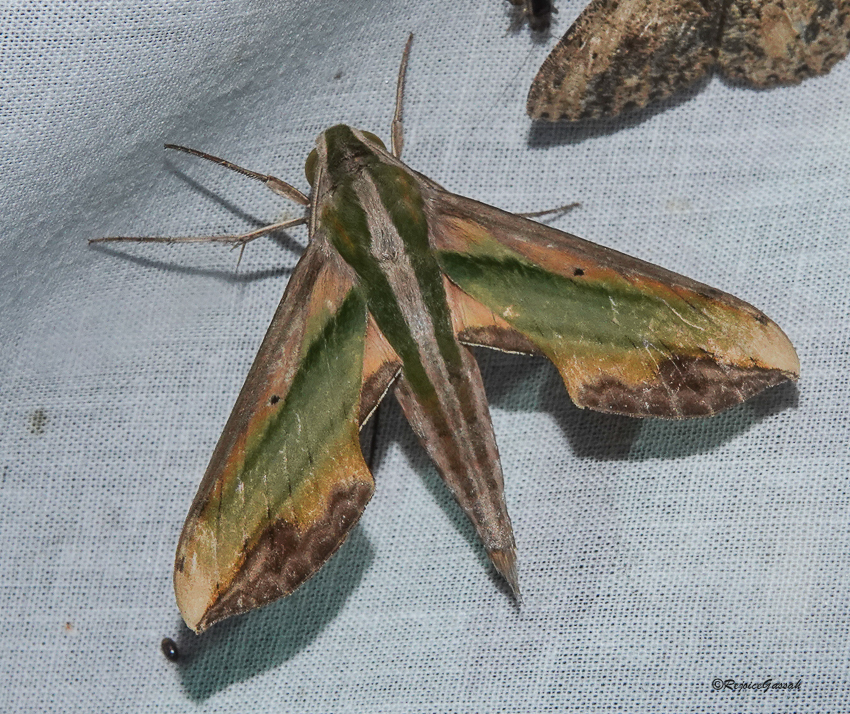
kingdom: Animalia
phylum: Arthropoda
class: Insecta
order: Lepidoptera
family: Sphingidae
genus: Pergesa
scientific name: Pergesa acteus
